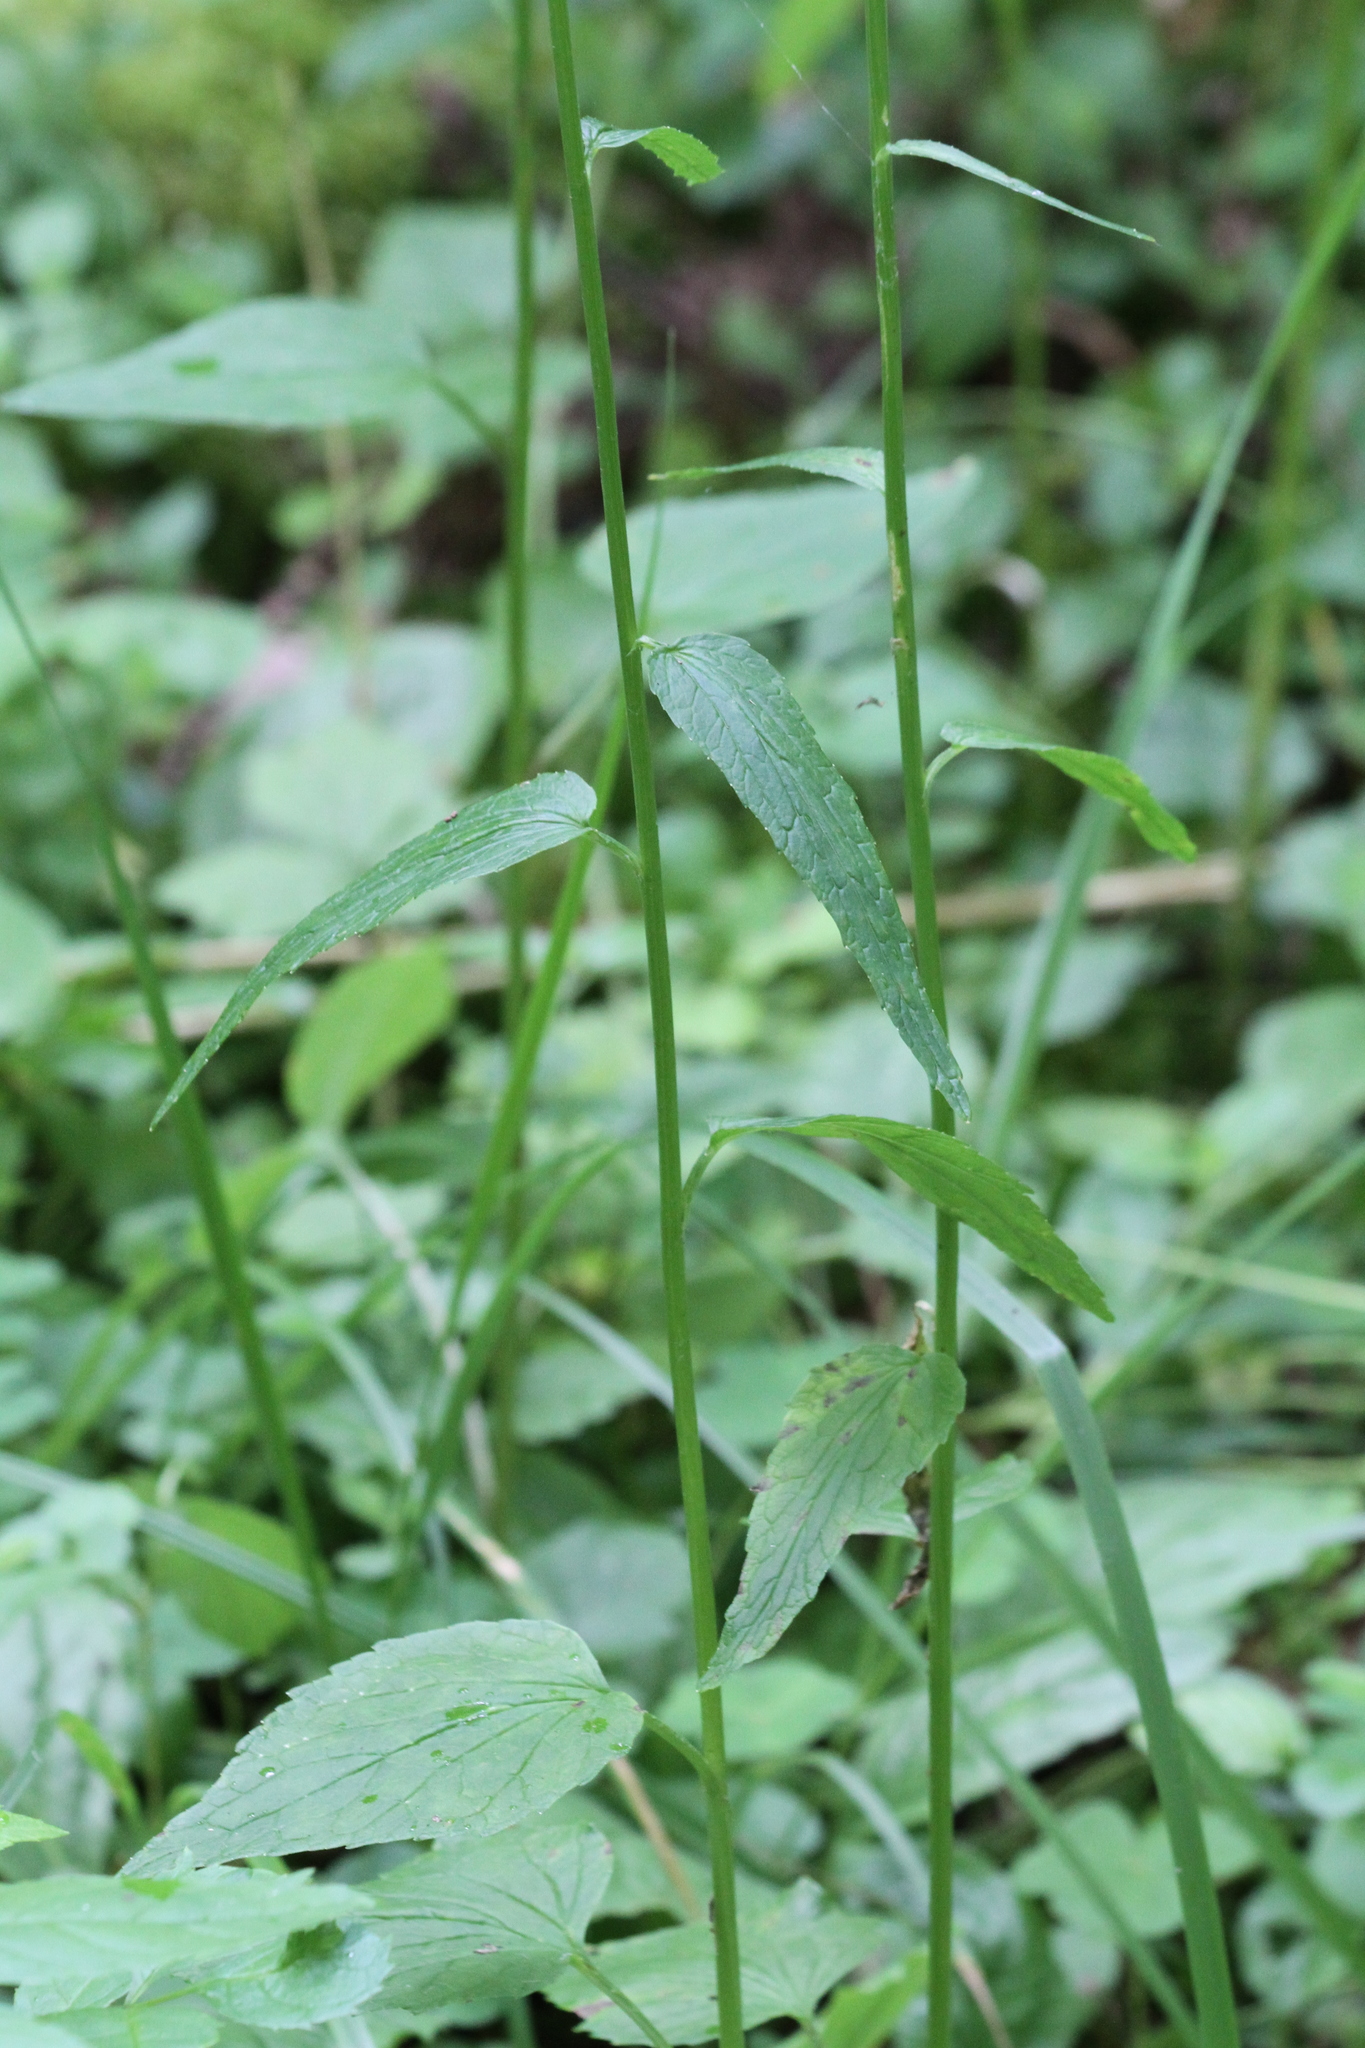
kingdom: Plantae
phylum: Tracheophyta
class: Magnoliopsida
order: Asterales
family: Campanulaceae
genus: Phyteuma
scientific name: Phyteuma spicatum
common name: Spiked rampion
